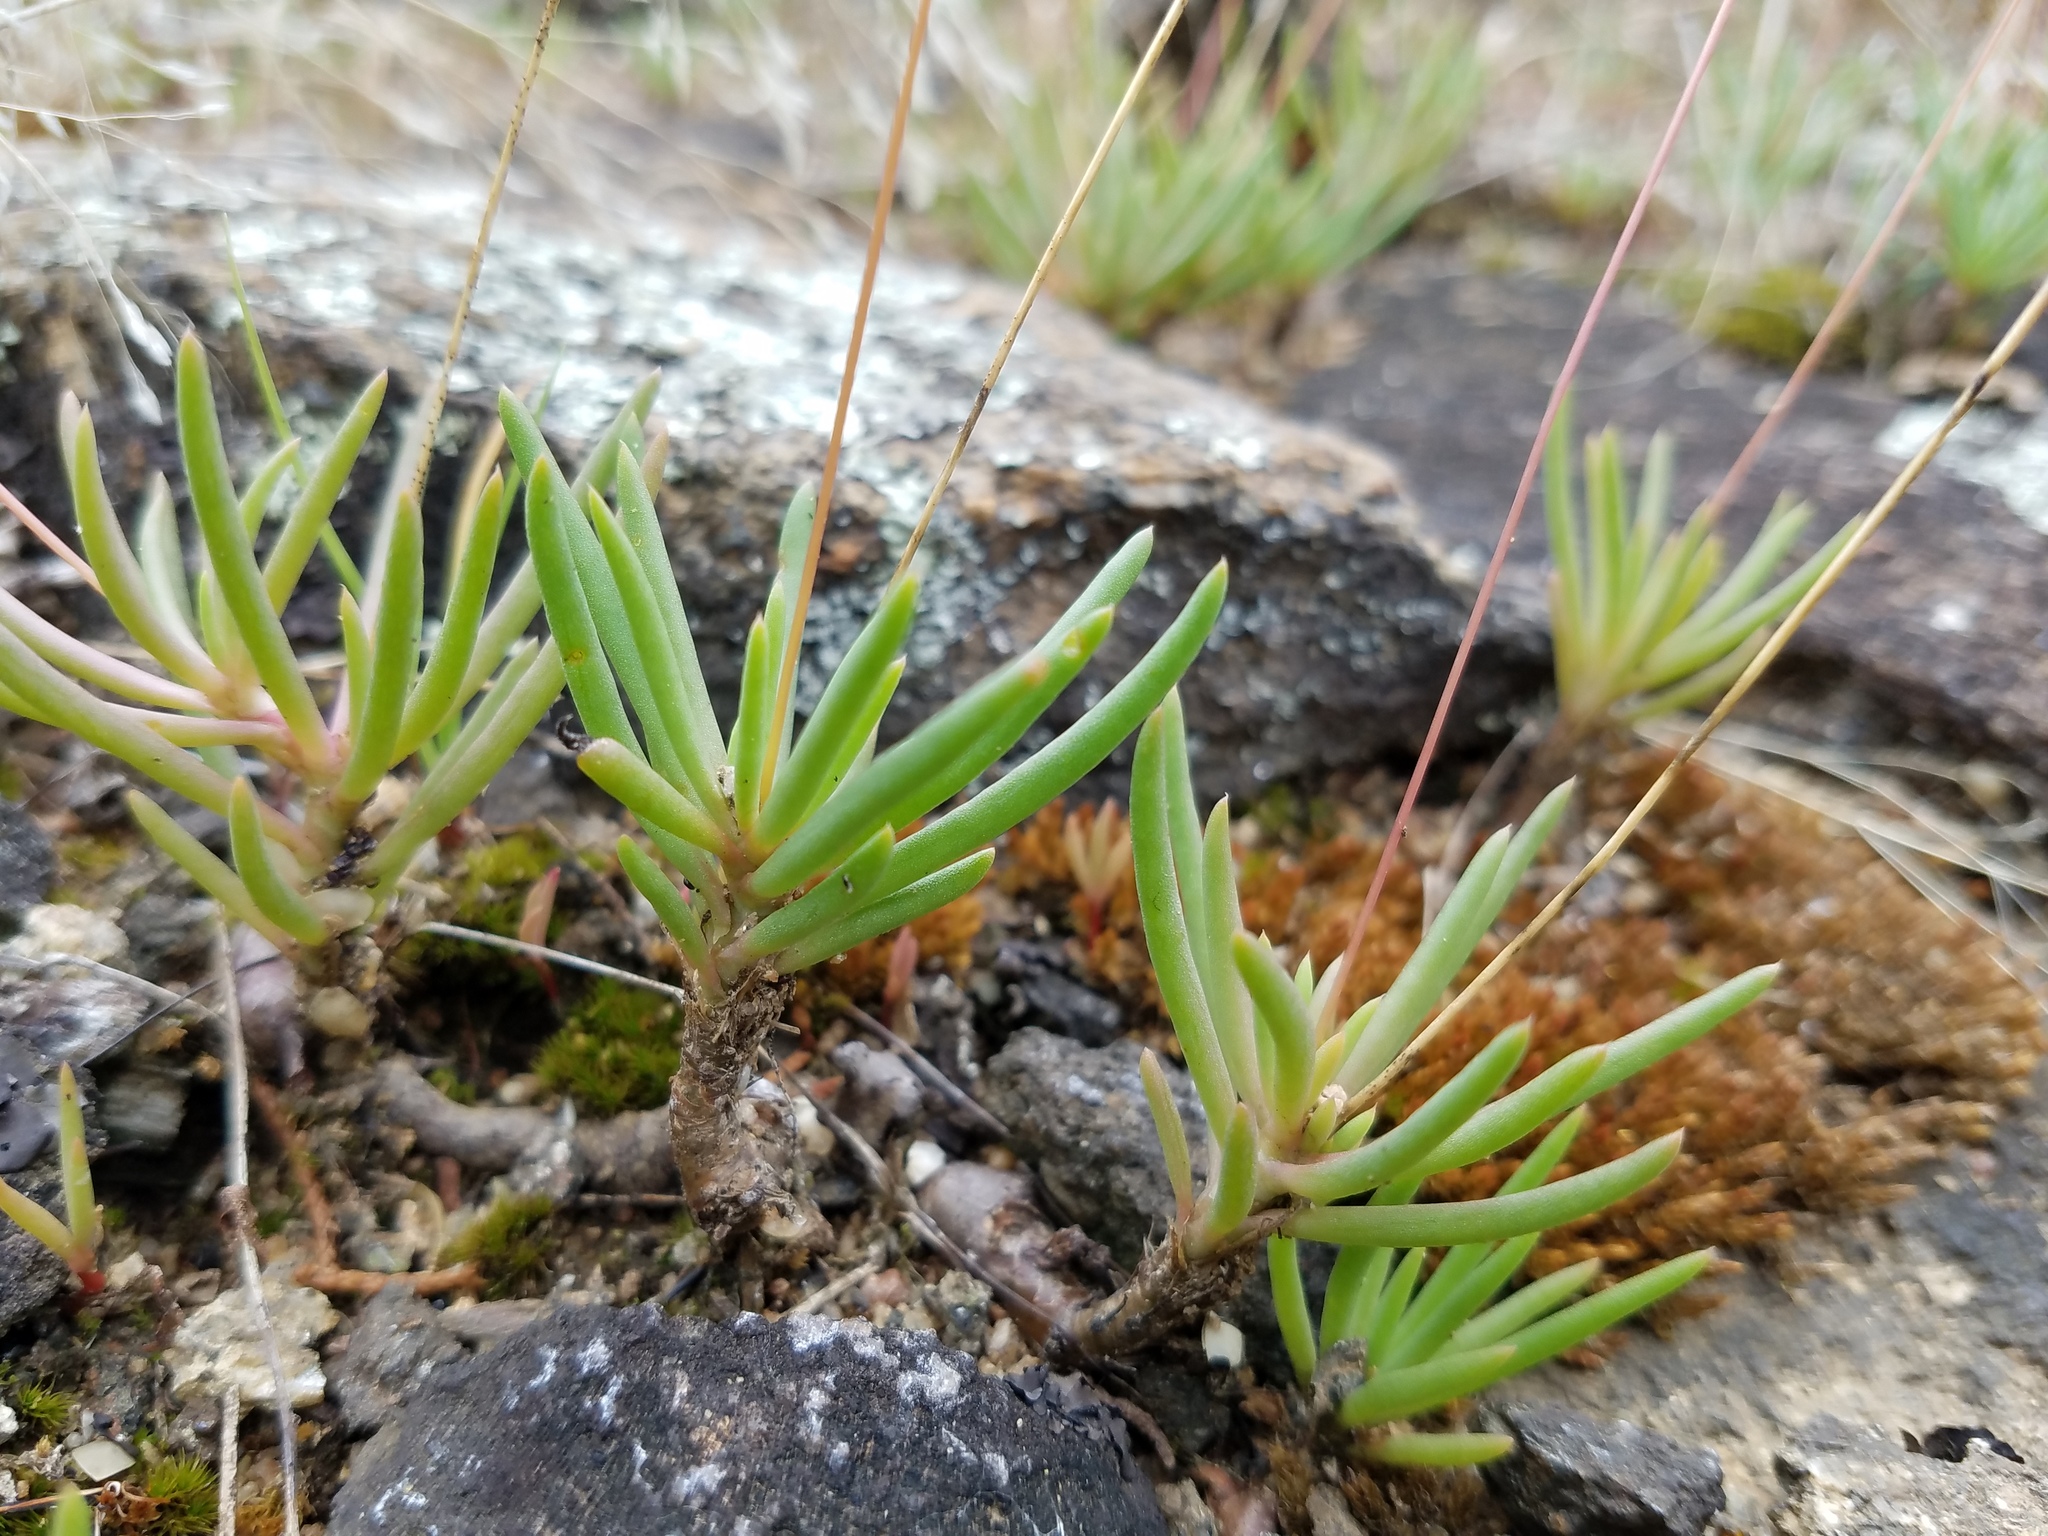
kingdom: Plantae
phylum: Tracheophyta
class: Magnoliopsida
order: Caryophyllales
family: Montiaceae
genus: Phemeranthus
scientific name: Phemeranthus teretifolius
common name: Quill fameflower
